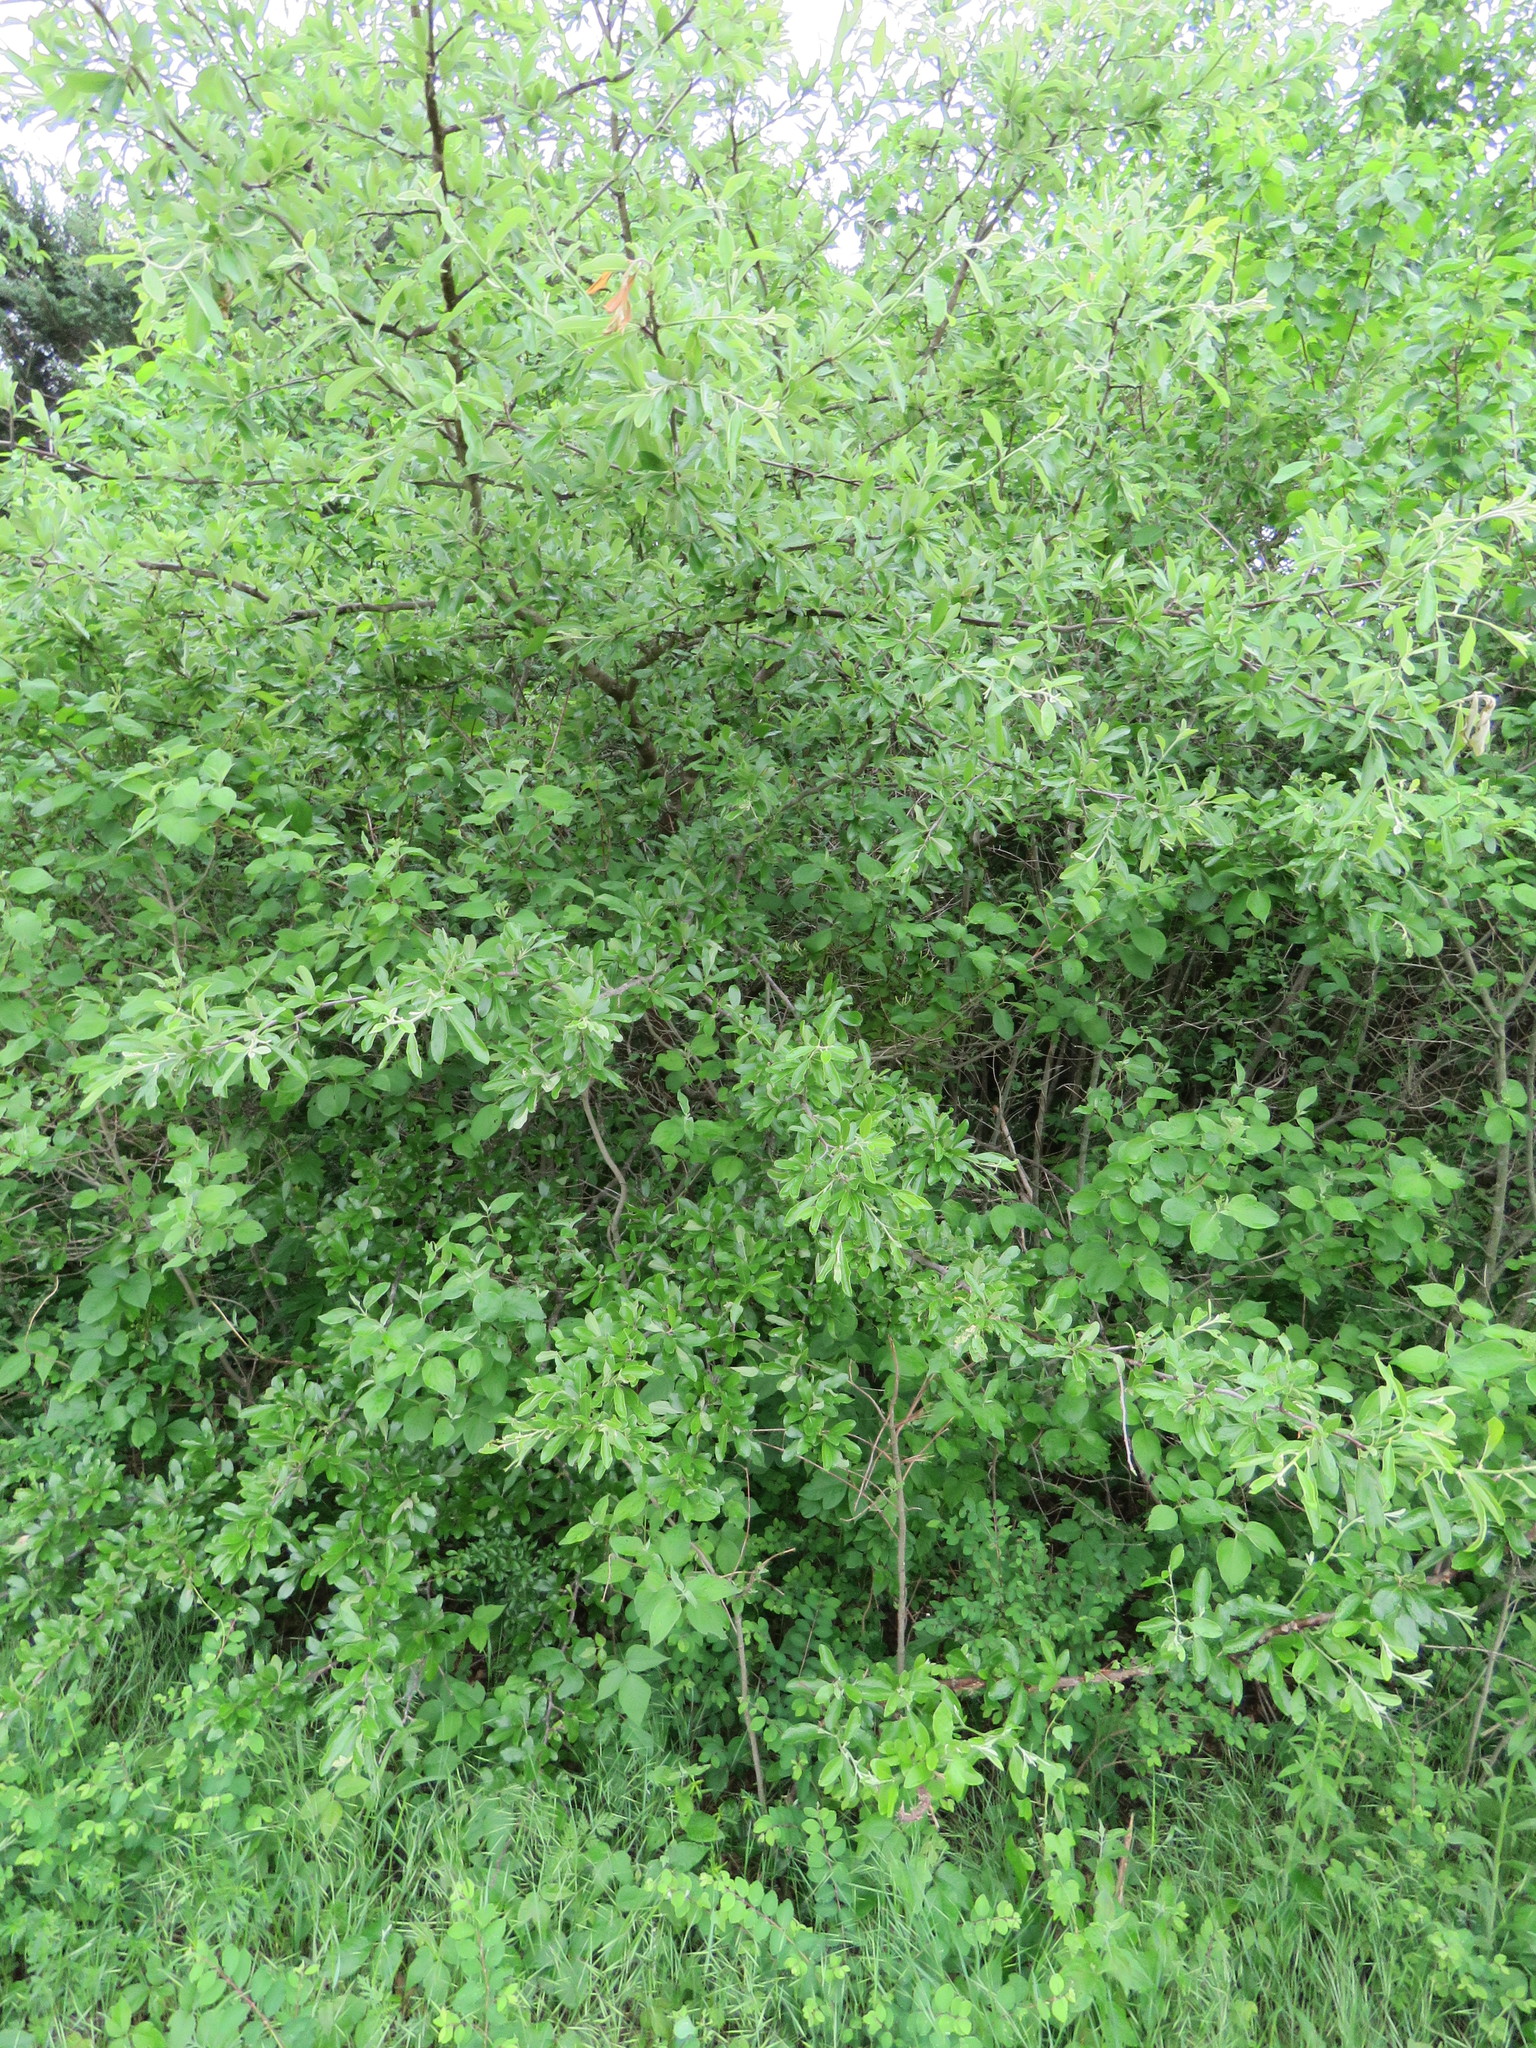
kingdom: Plantae
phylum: Tracheophyta
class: Magnoliopsida
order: Ericales
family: Sapotaceae
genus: Sideroxylon
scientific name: Sideroxylon lanuginosum
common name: Chittamwood
